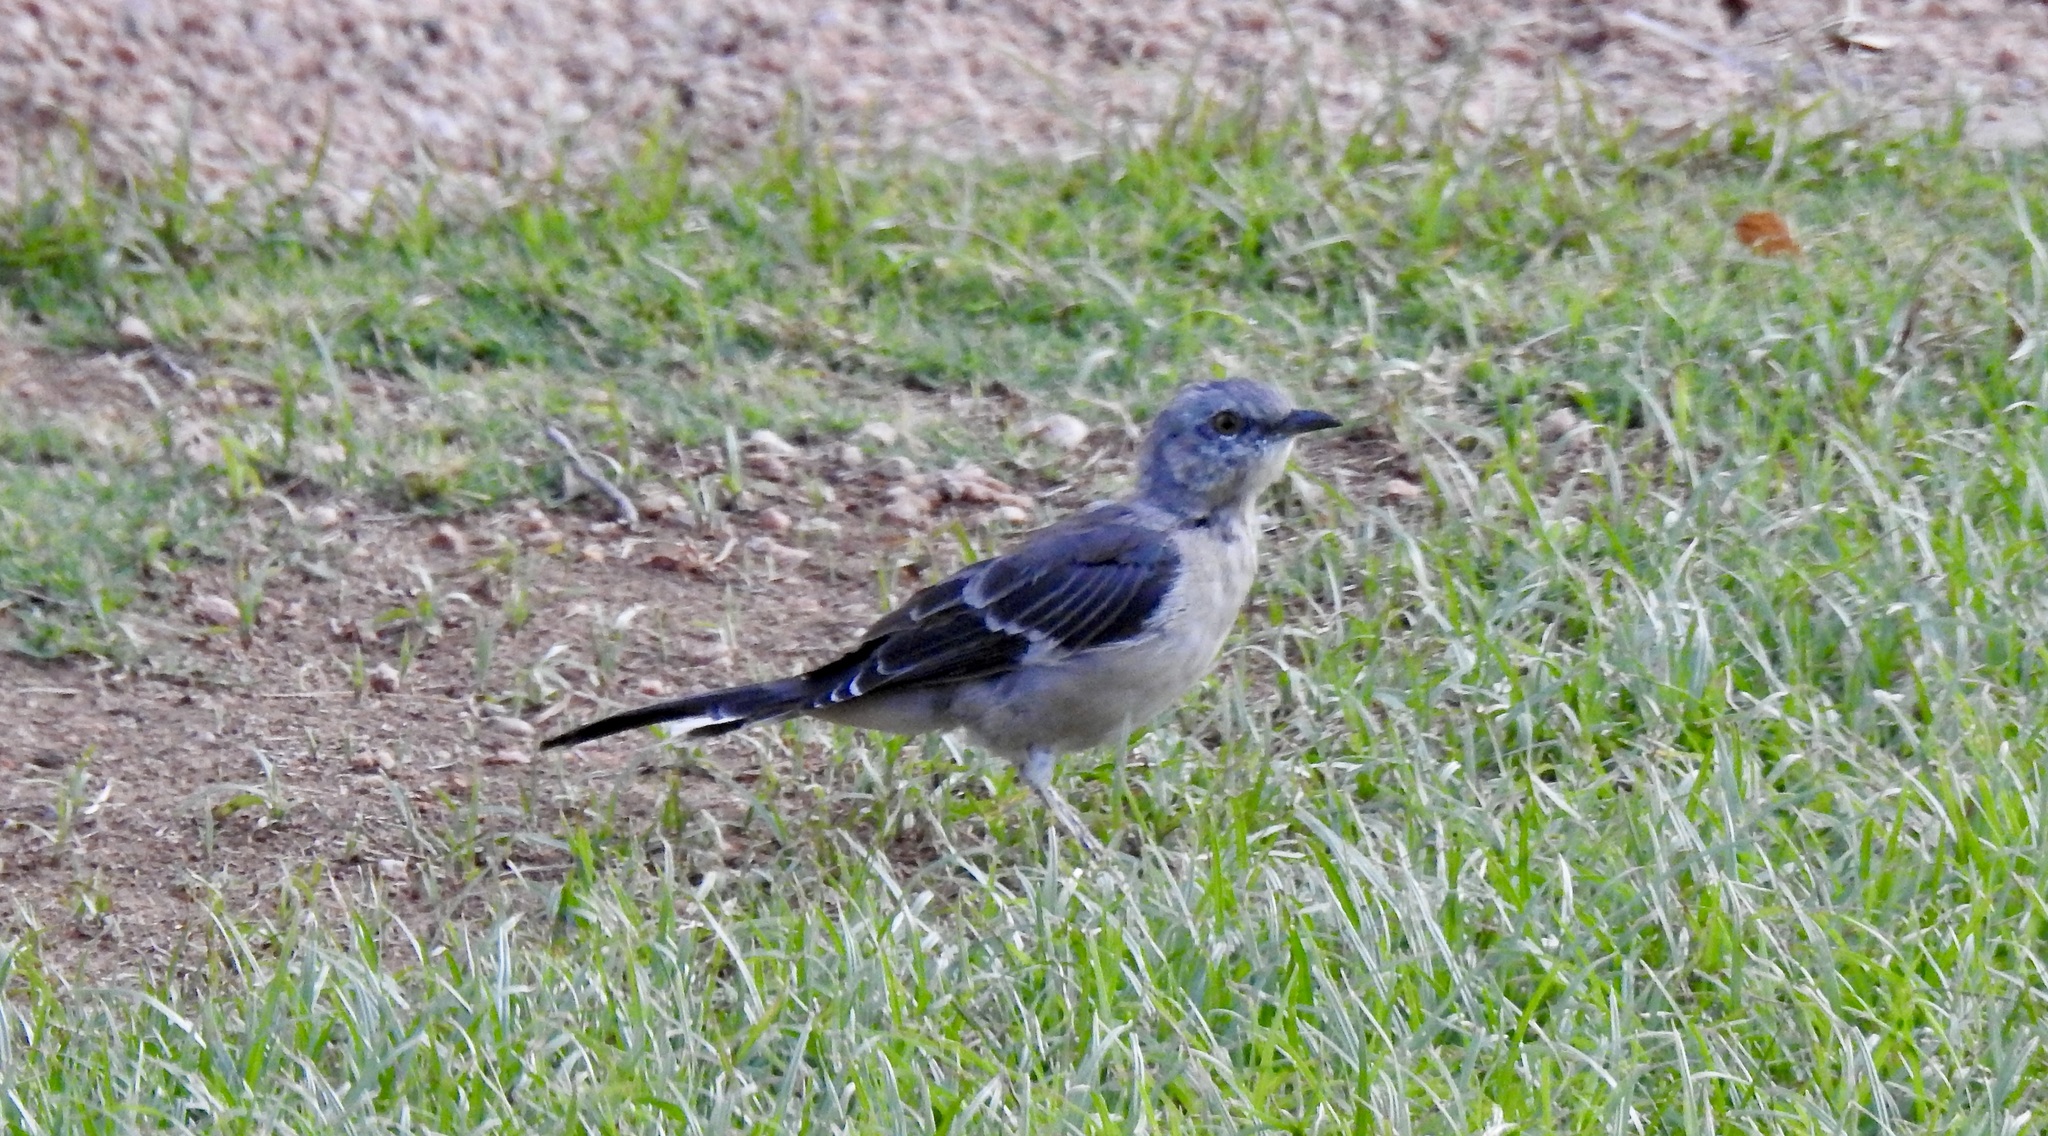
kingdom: Animalia
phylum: Chordata
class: Aves
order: Passeriformes
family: Mimidae
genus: Mimus
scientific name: Mimus polyglottos
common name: Northern mockingbird
